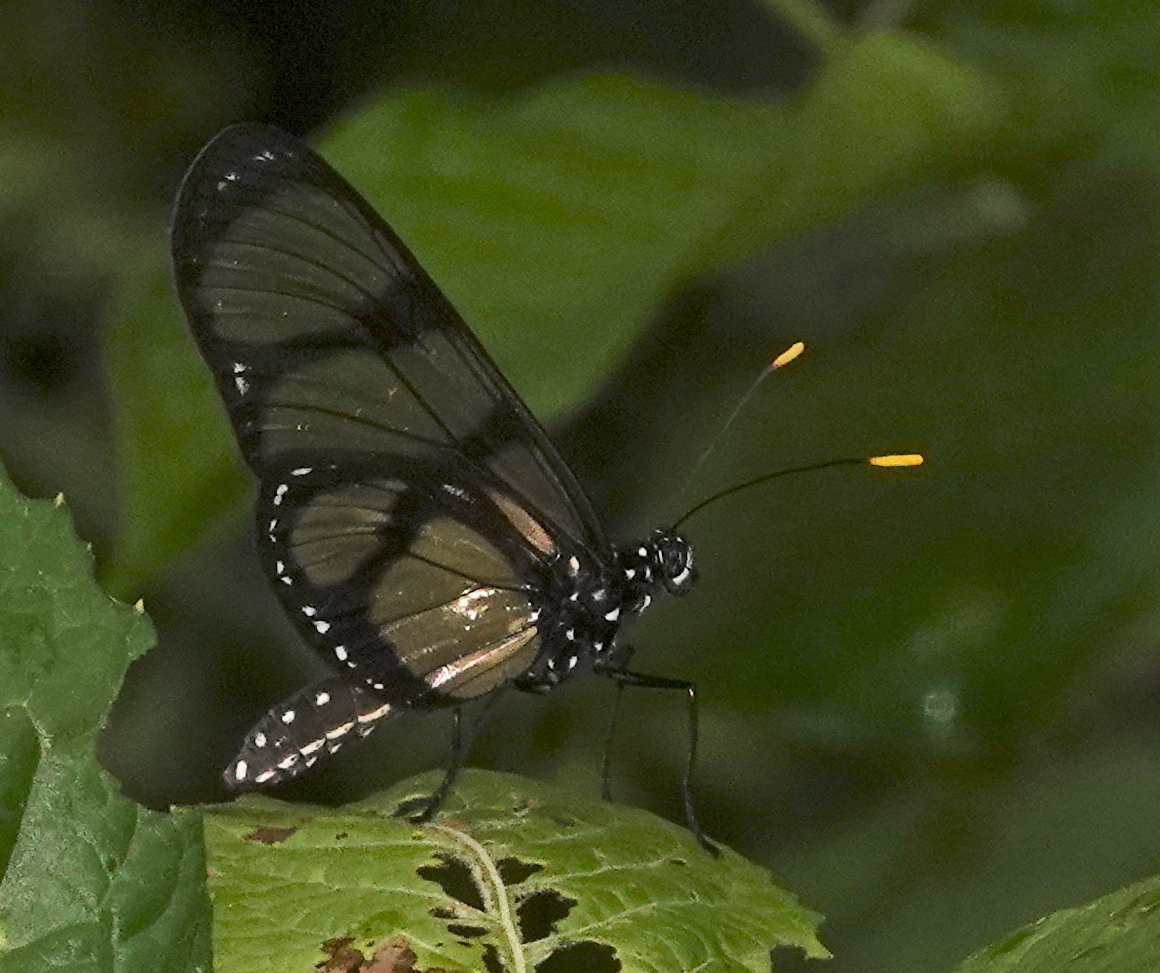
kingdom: Animalia
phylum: Arthropoda
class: Insecta
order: Lepidoptera
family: Nymphalidae
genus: Methona
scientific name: Methona confusa
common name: Confusa tigerwing
